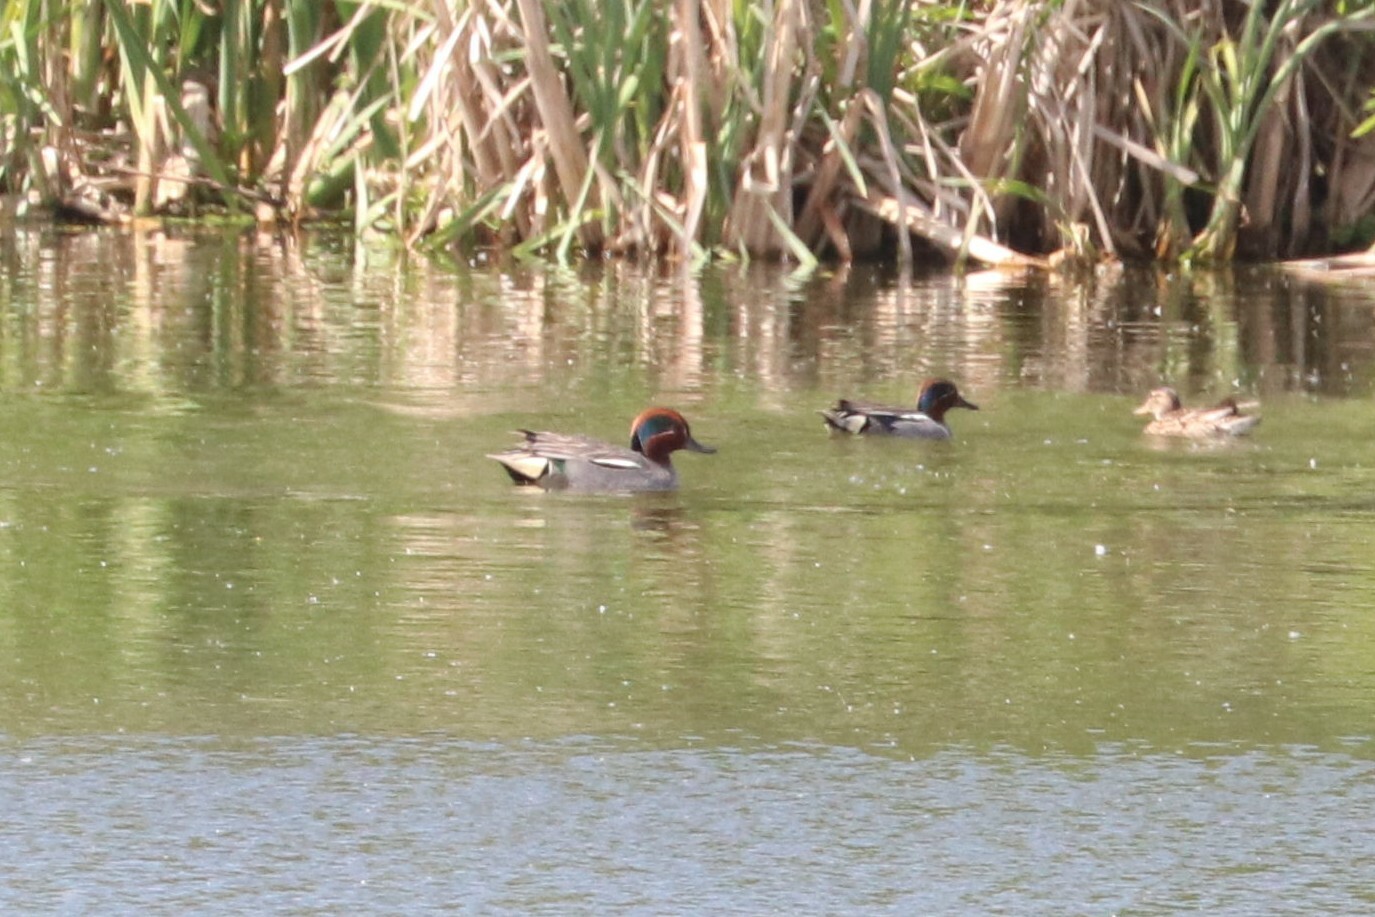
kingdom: Animalia
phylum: Chordata
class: Aves
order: Anseriformes
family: Anatidae
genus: Anas
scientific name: Anas crecca
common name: Eurasian teal
